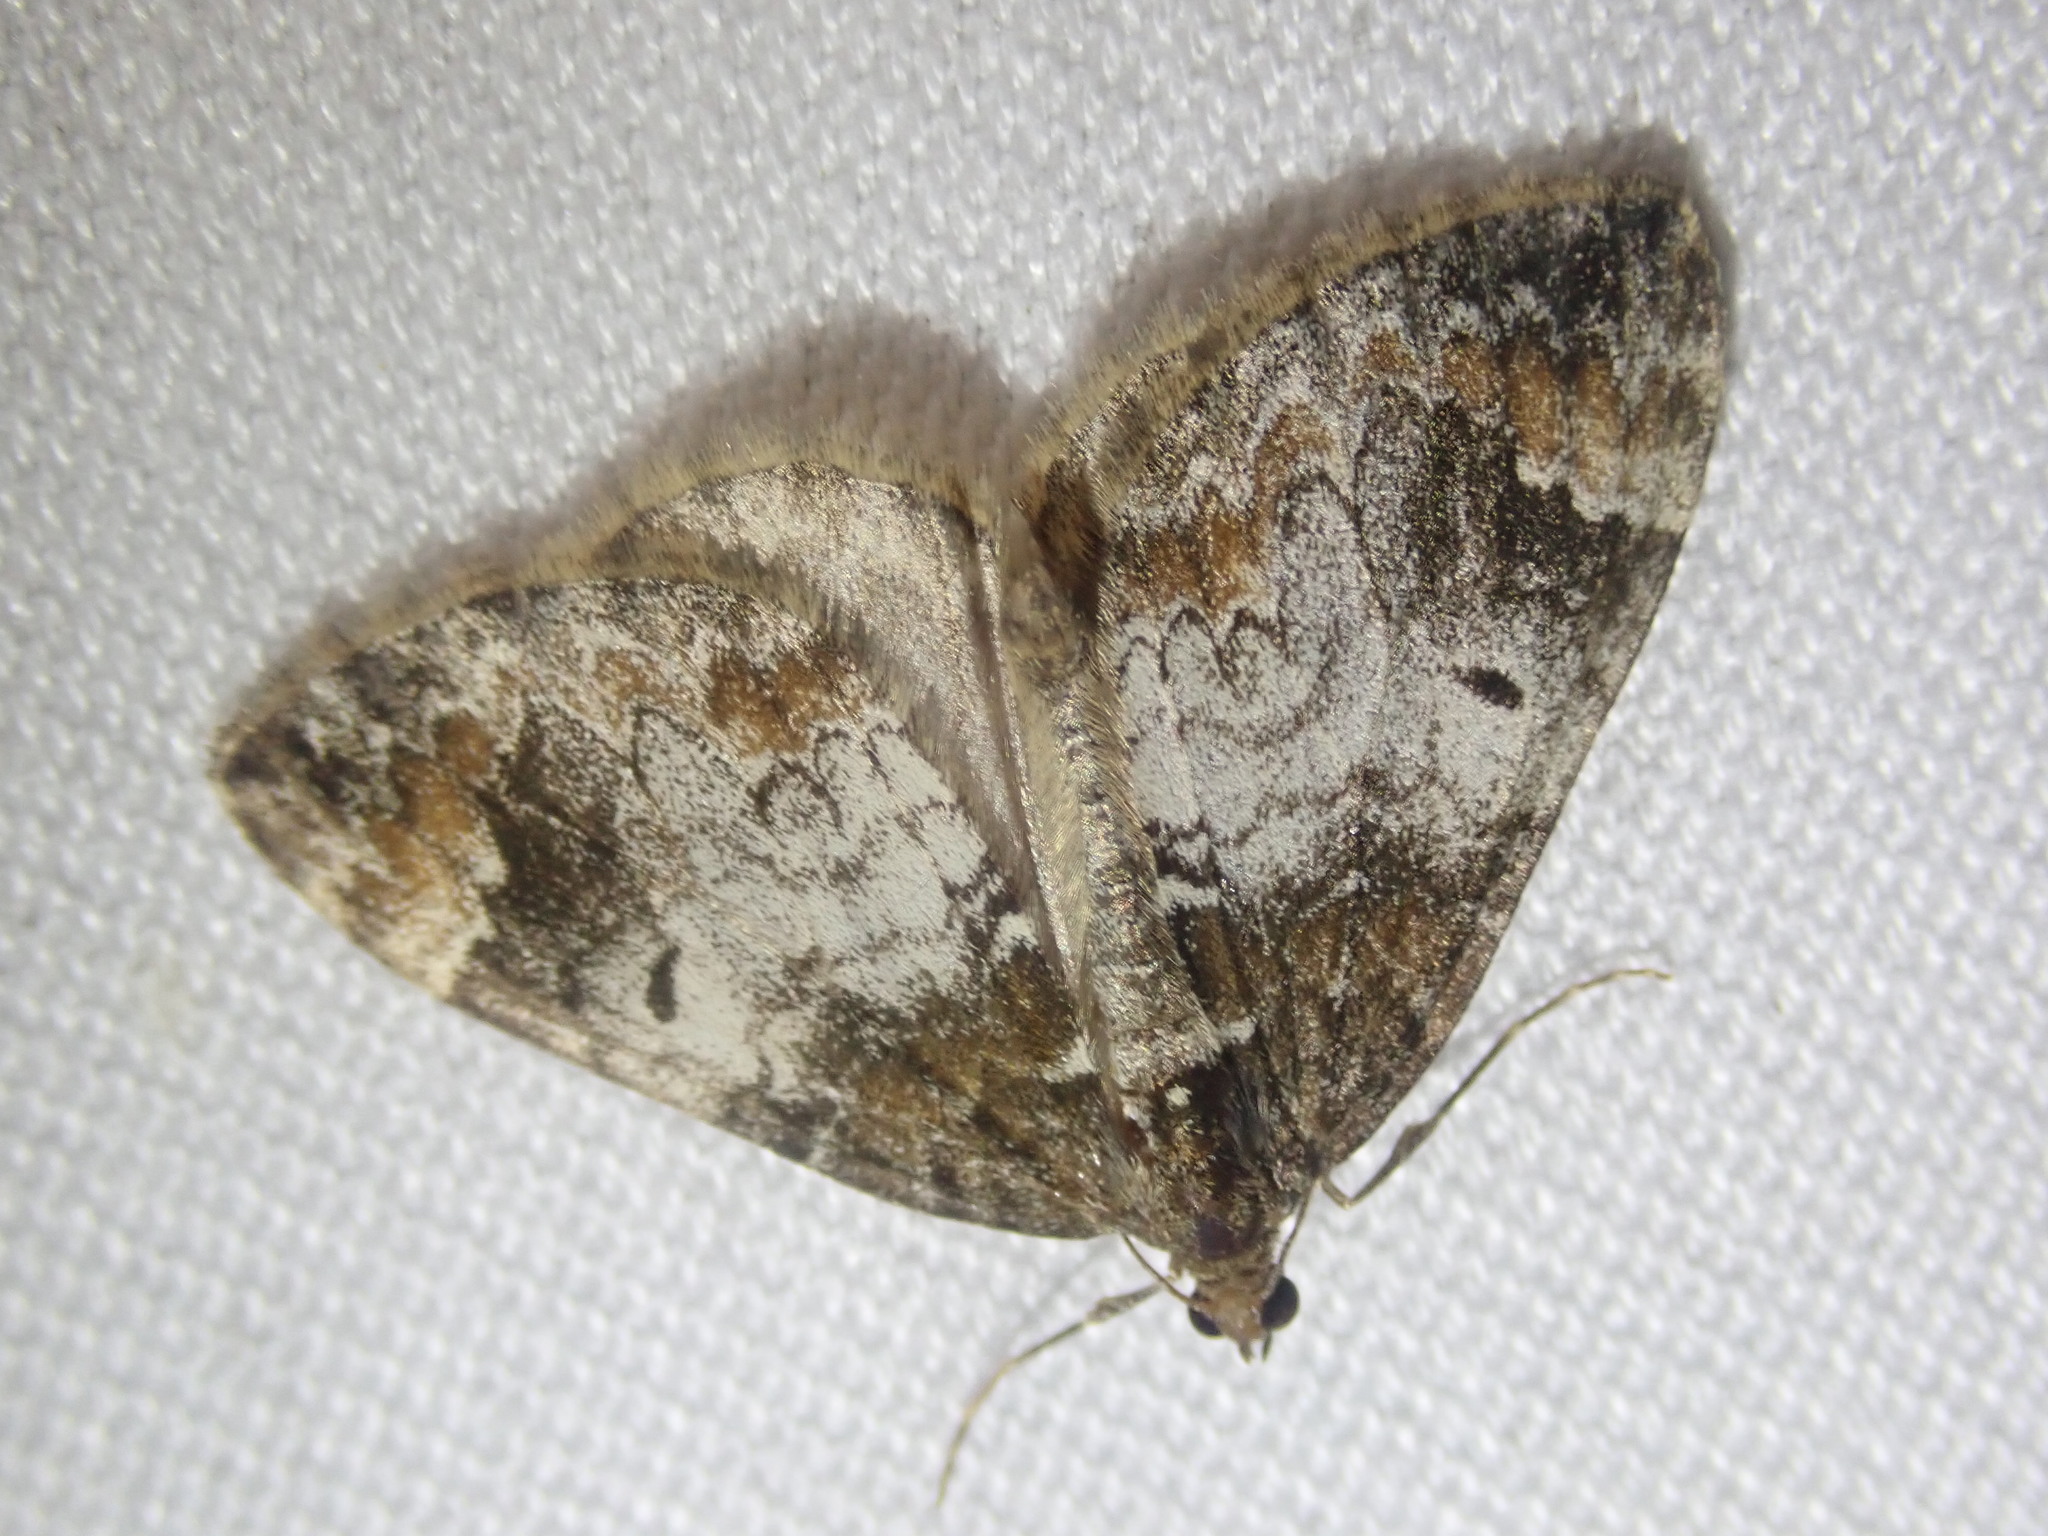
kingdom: Animalia
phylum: Arthropoda
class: Insecta
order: Lepidoptera
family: Geometridae
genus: Dysstroma
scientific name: Dysstroma truncata
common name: Common marbled carpet
